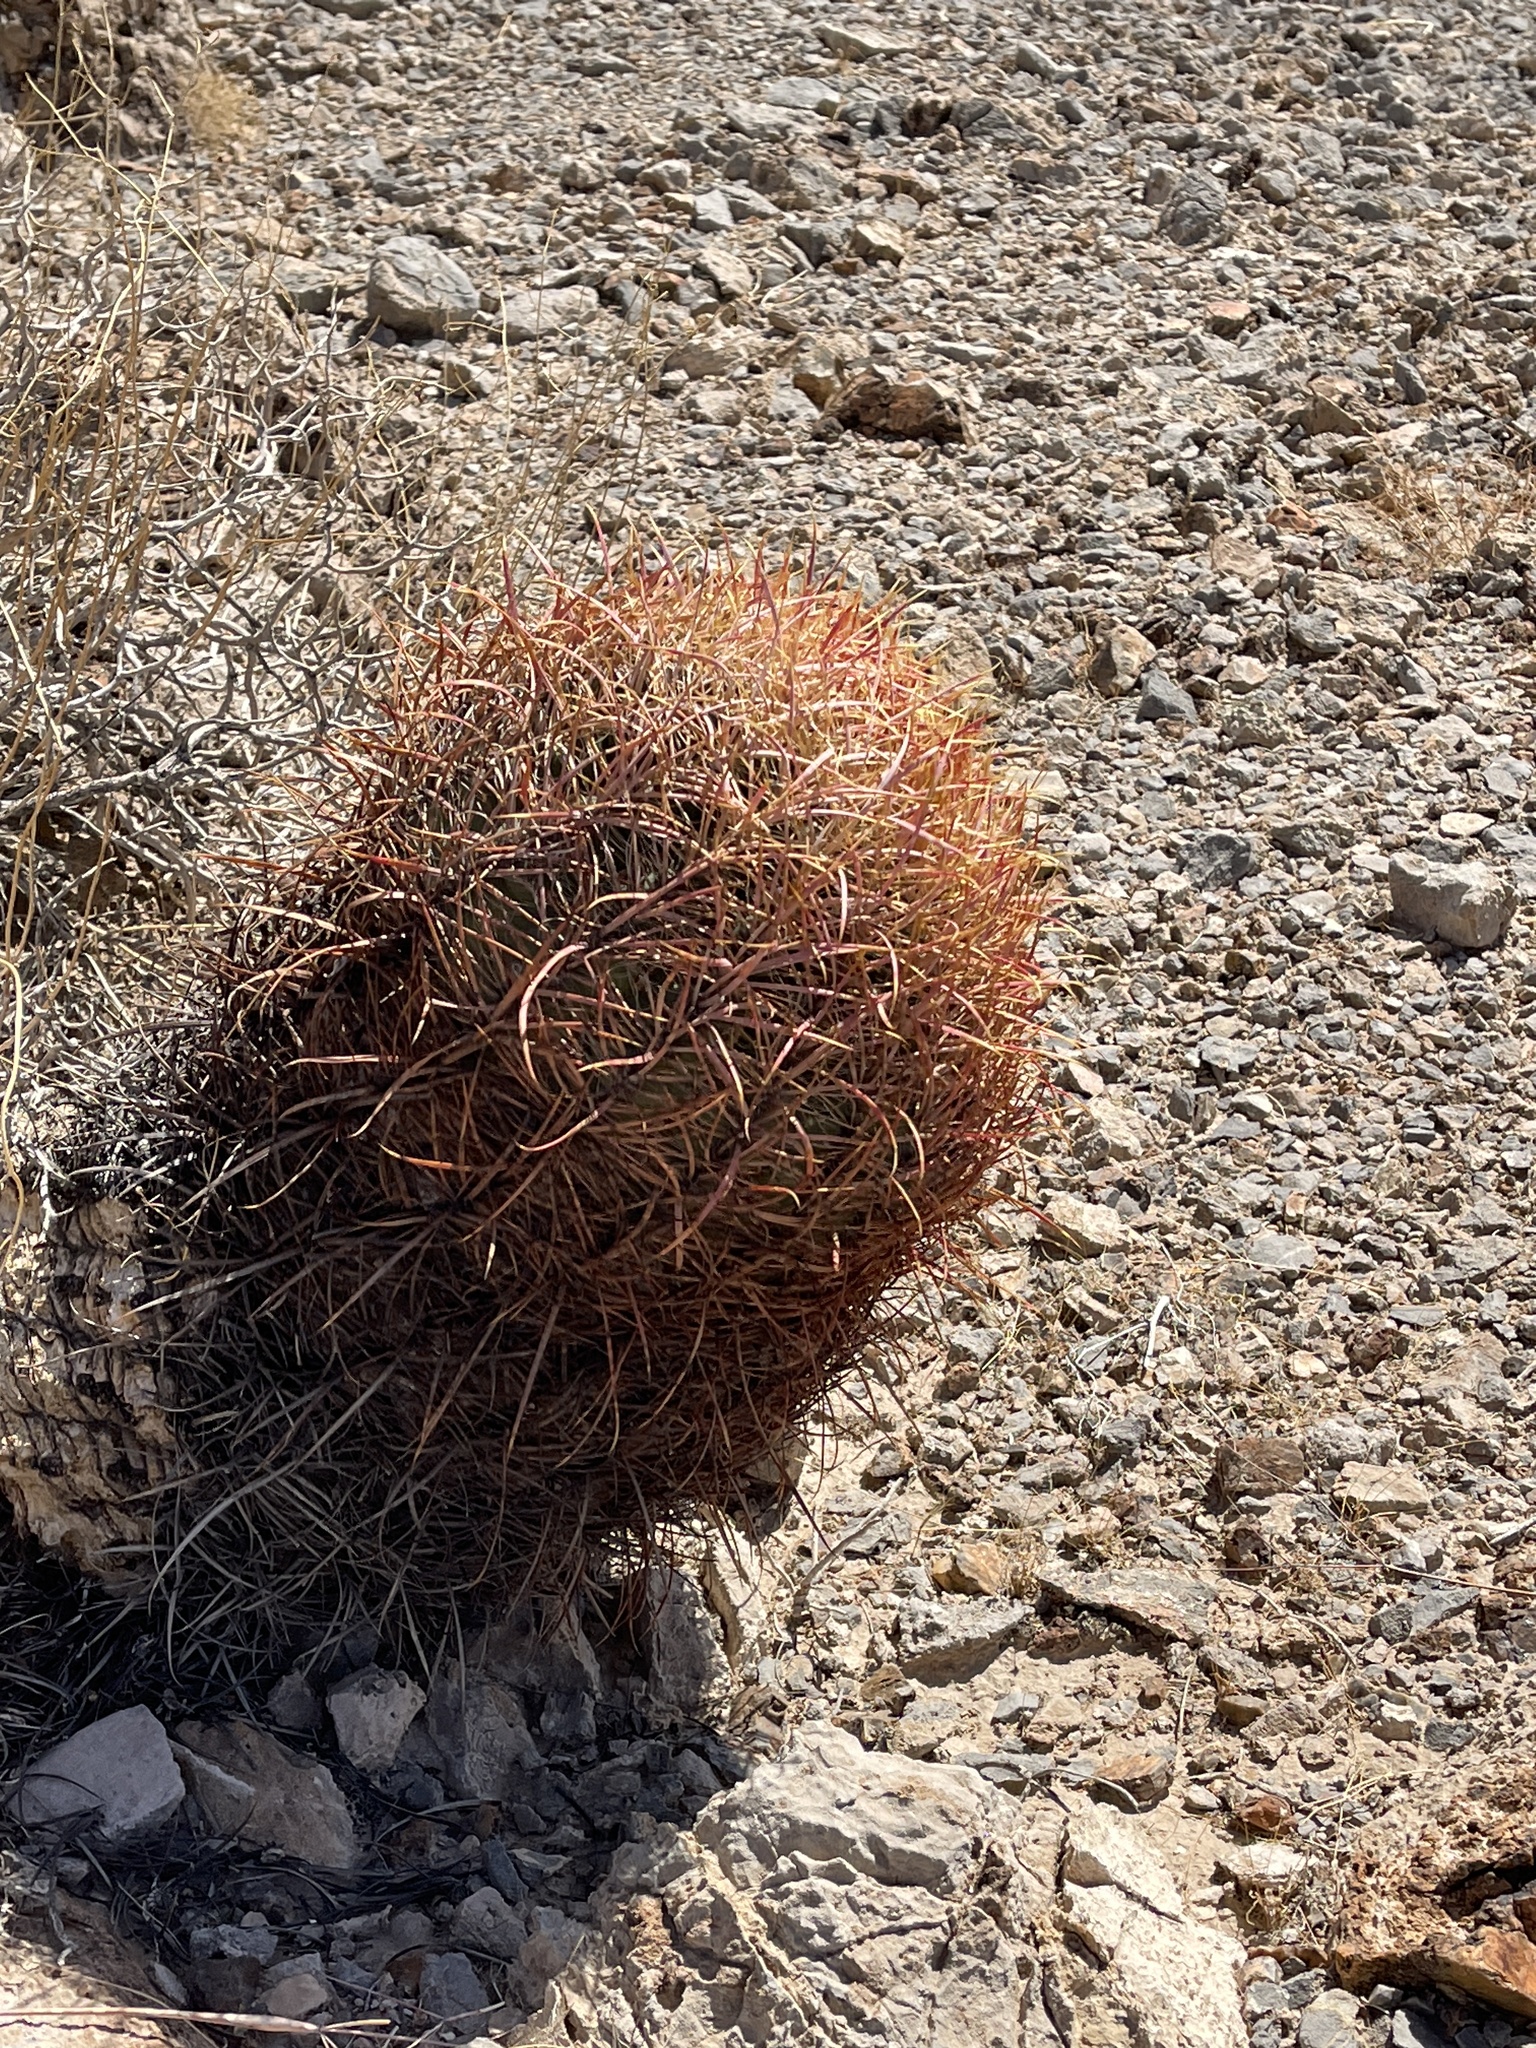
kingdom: Plantae
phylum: Tracheophyta
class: Magnoliopsida
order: Caryophyllales
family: Cactaceae
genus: Ferocactus
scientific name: Ferocactus cylindraceus
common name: California barrel cactus
